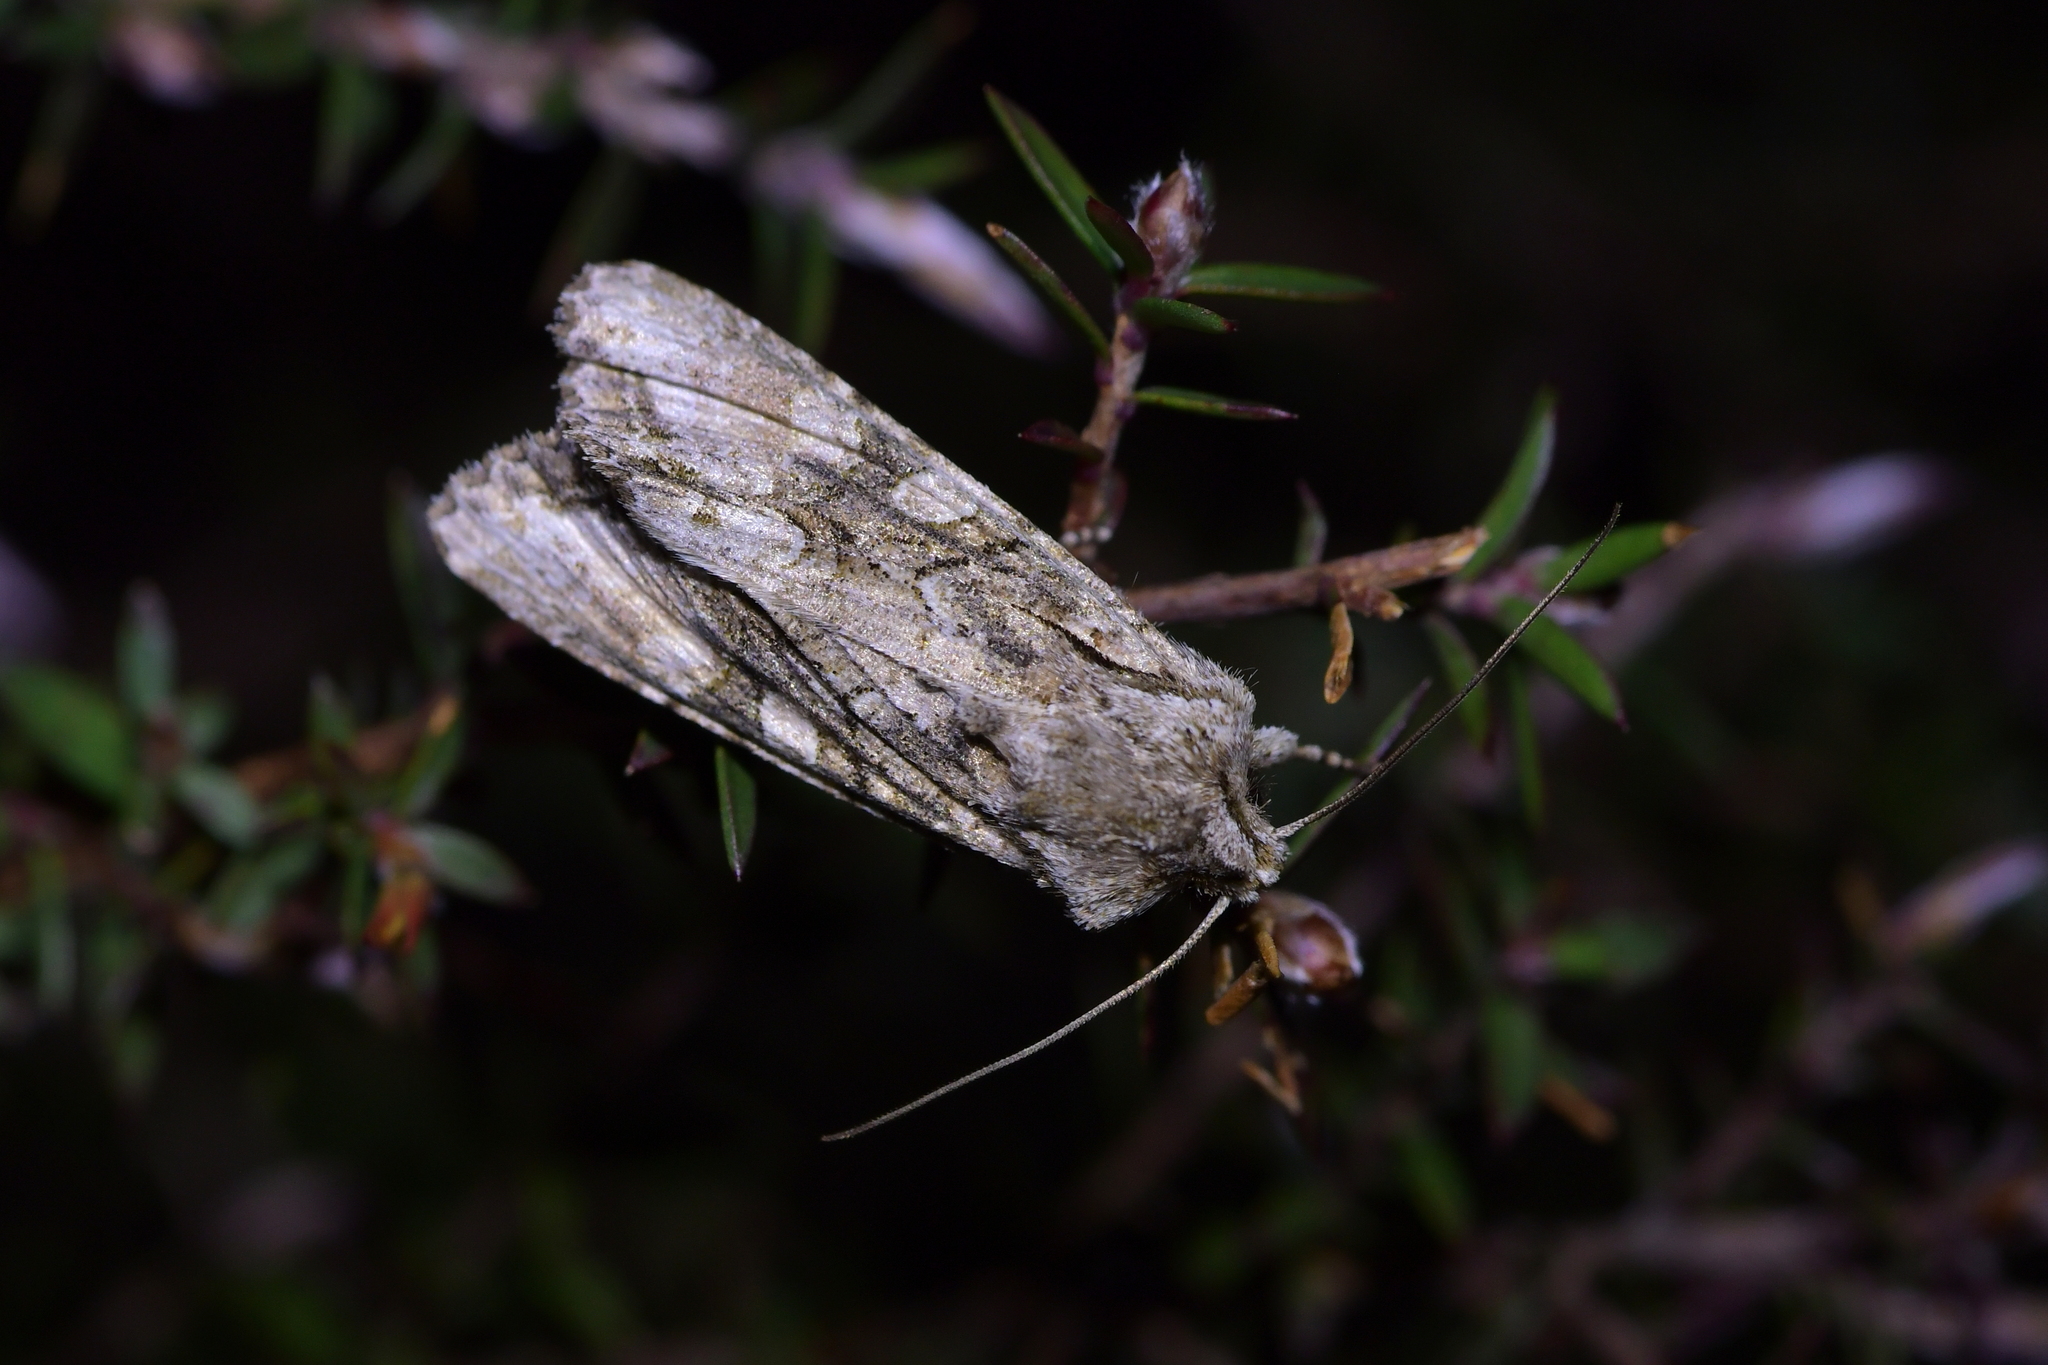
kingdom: Animalia
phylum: Arthropoda
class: Insecta
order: Lepidoptera
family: Noctuidae
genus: Ichneutica
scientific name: Ichneutica mutans
